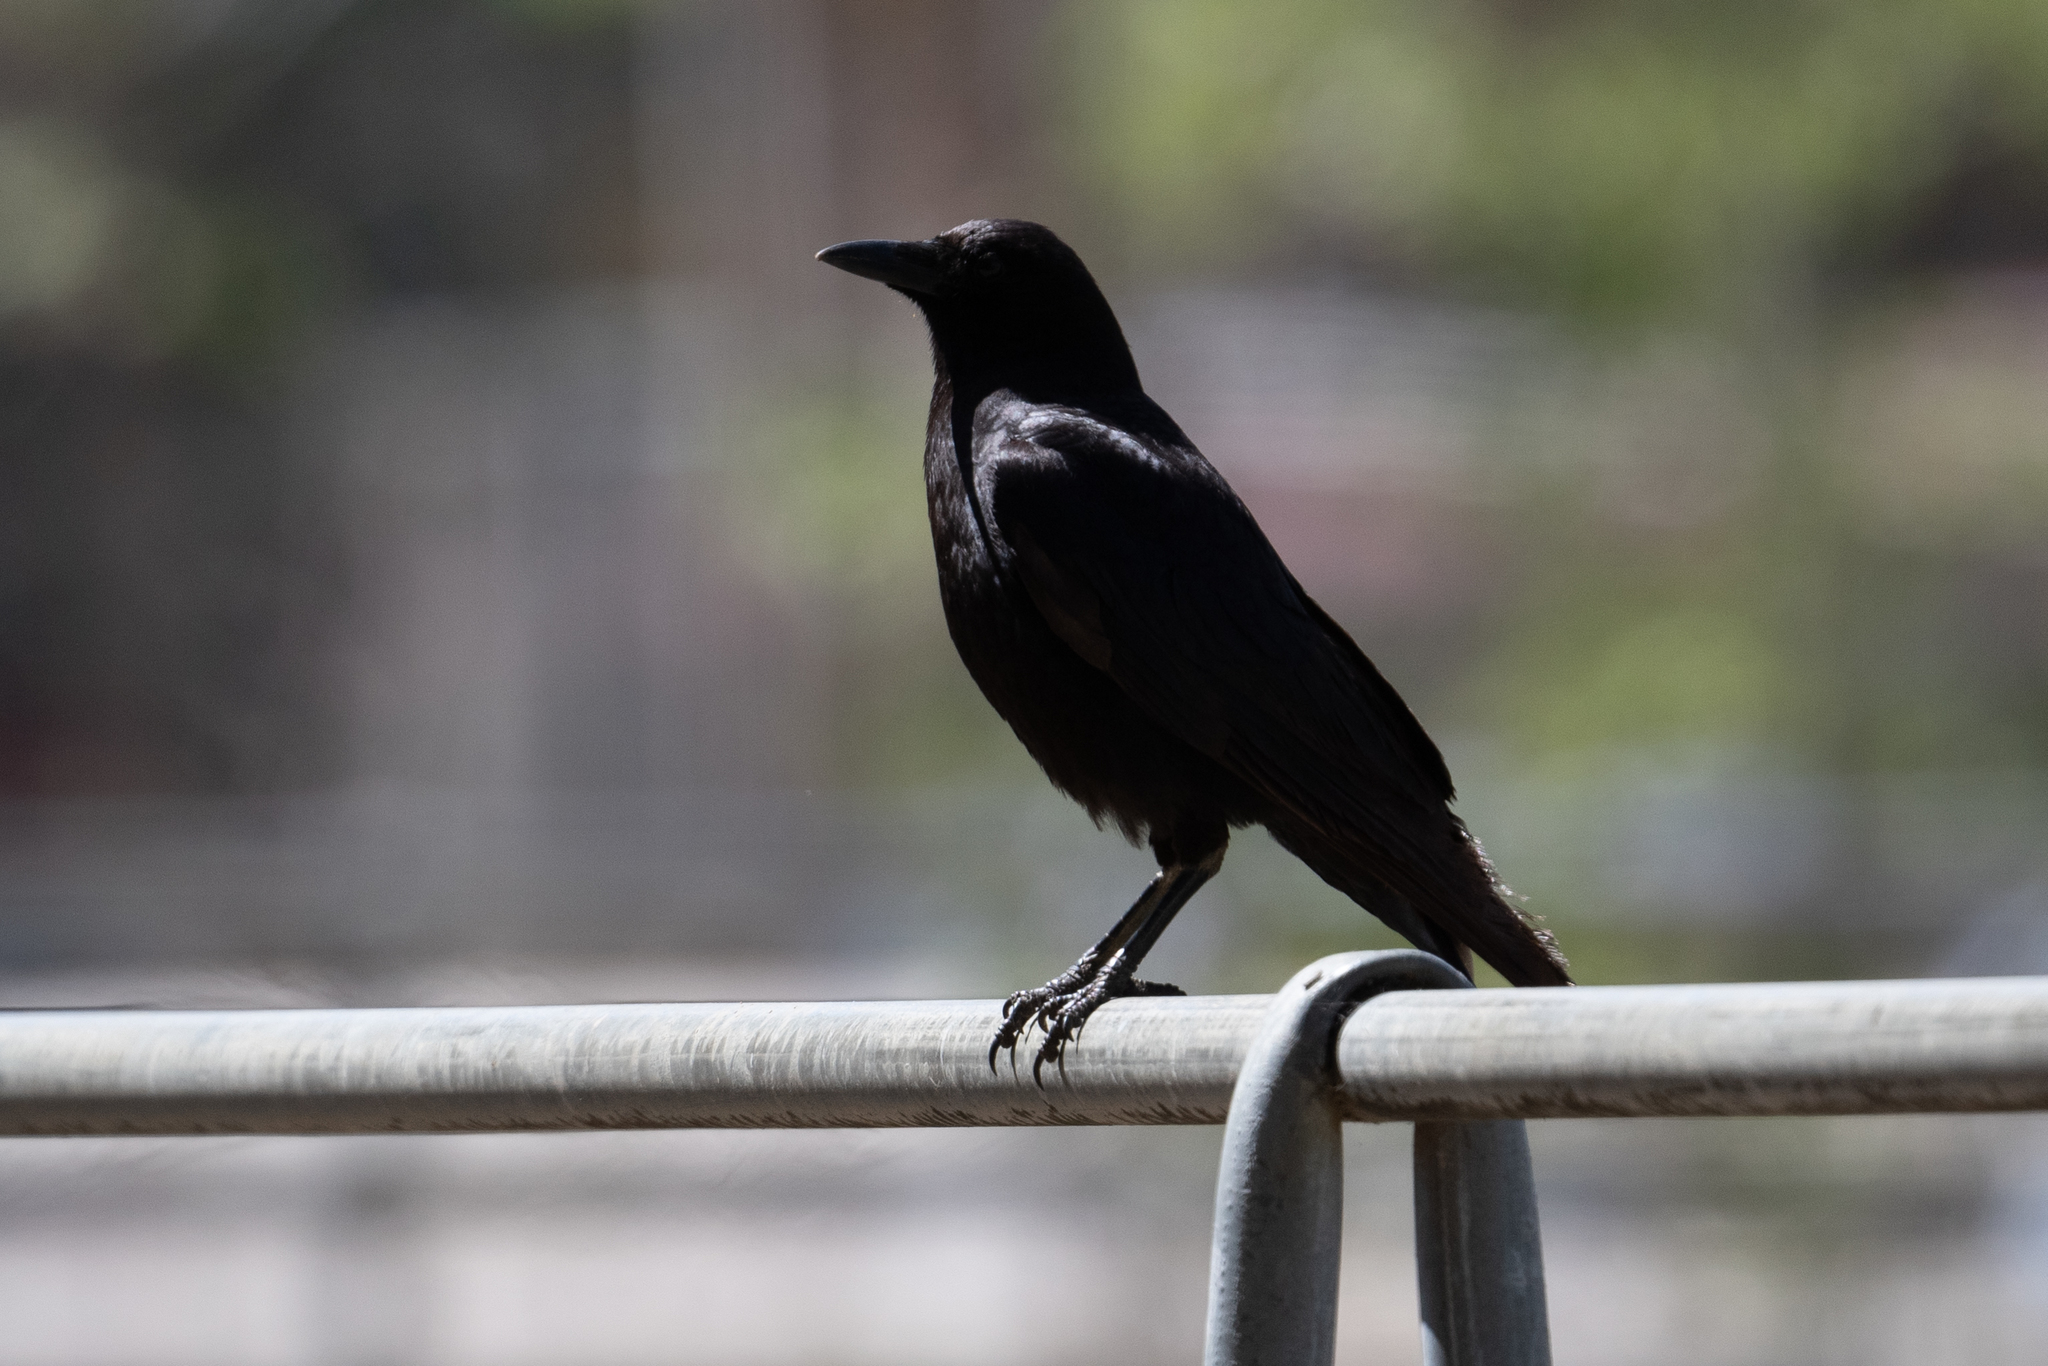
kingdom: Animalia
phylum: Chordata
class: Aves
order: Passeriformes
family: Corvidae
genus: Corvus
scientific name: Corvus brachyrhynchos
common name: American crow
